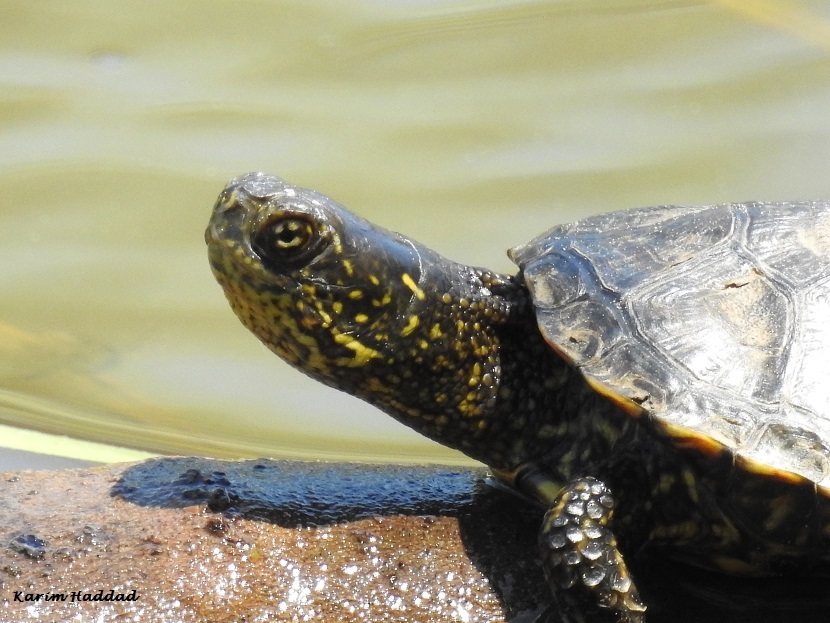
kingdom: Animalia
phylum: Chordata
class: Testudines
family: Emydidae
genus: Emys
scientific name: Emys orbicularis
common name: European pond turtle
